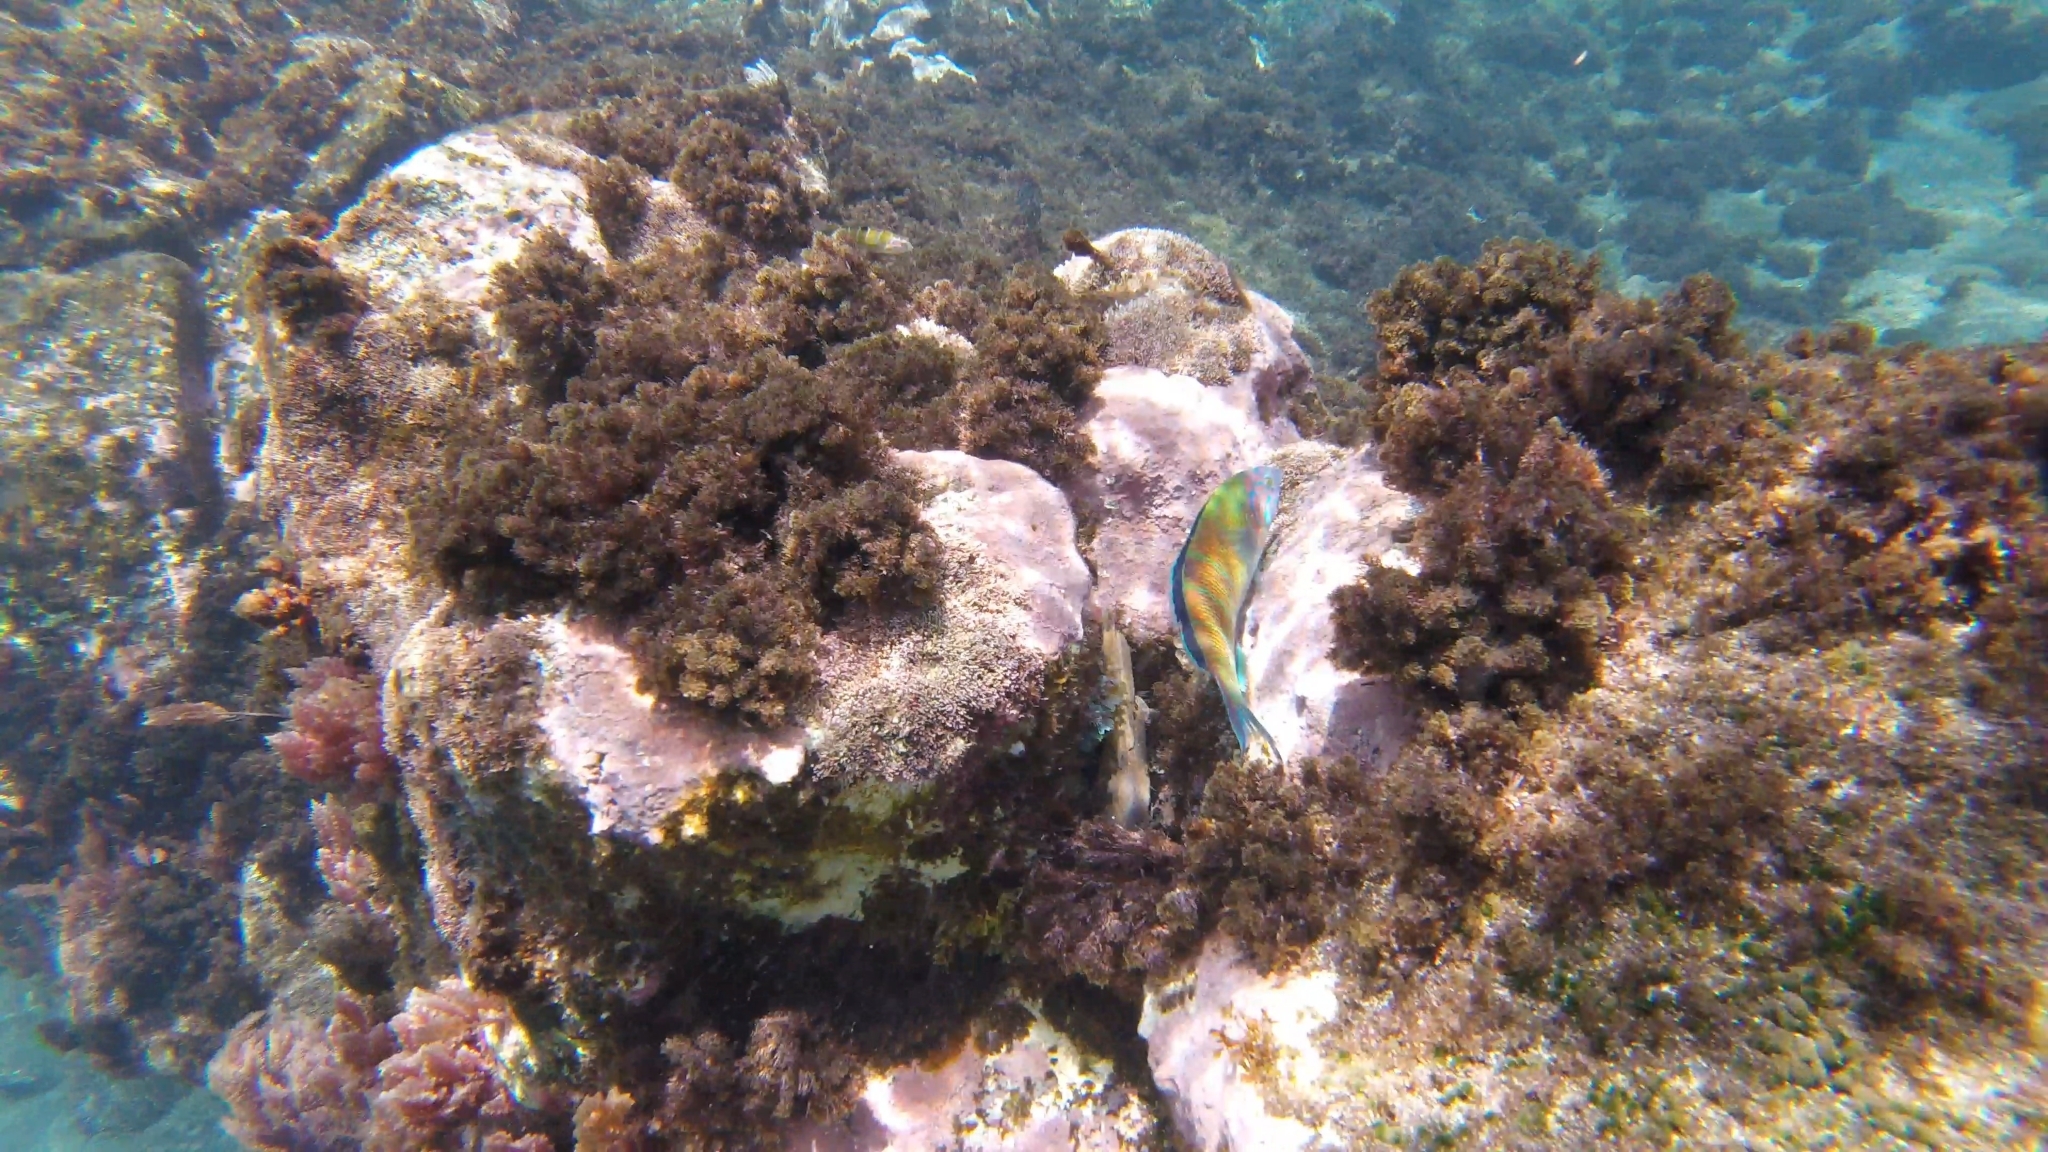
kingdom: Animalia
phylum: Chordata
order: Perciformes
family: Labridae
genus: Thalassoma
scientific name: Thalassoma pavo
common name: Ornate wrasse
